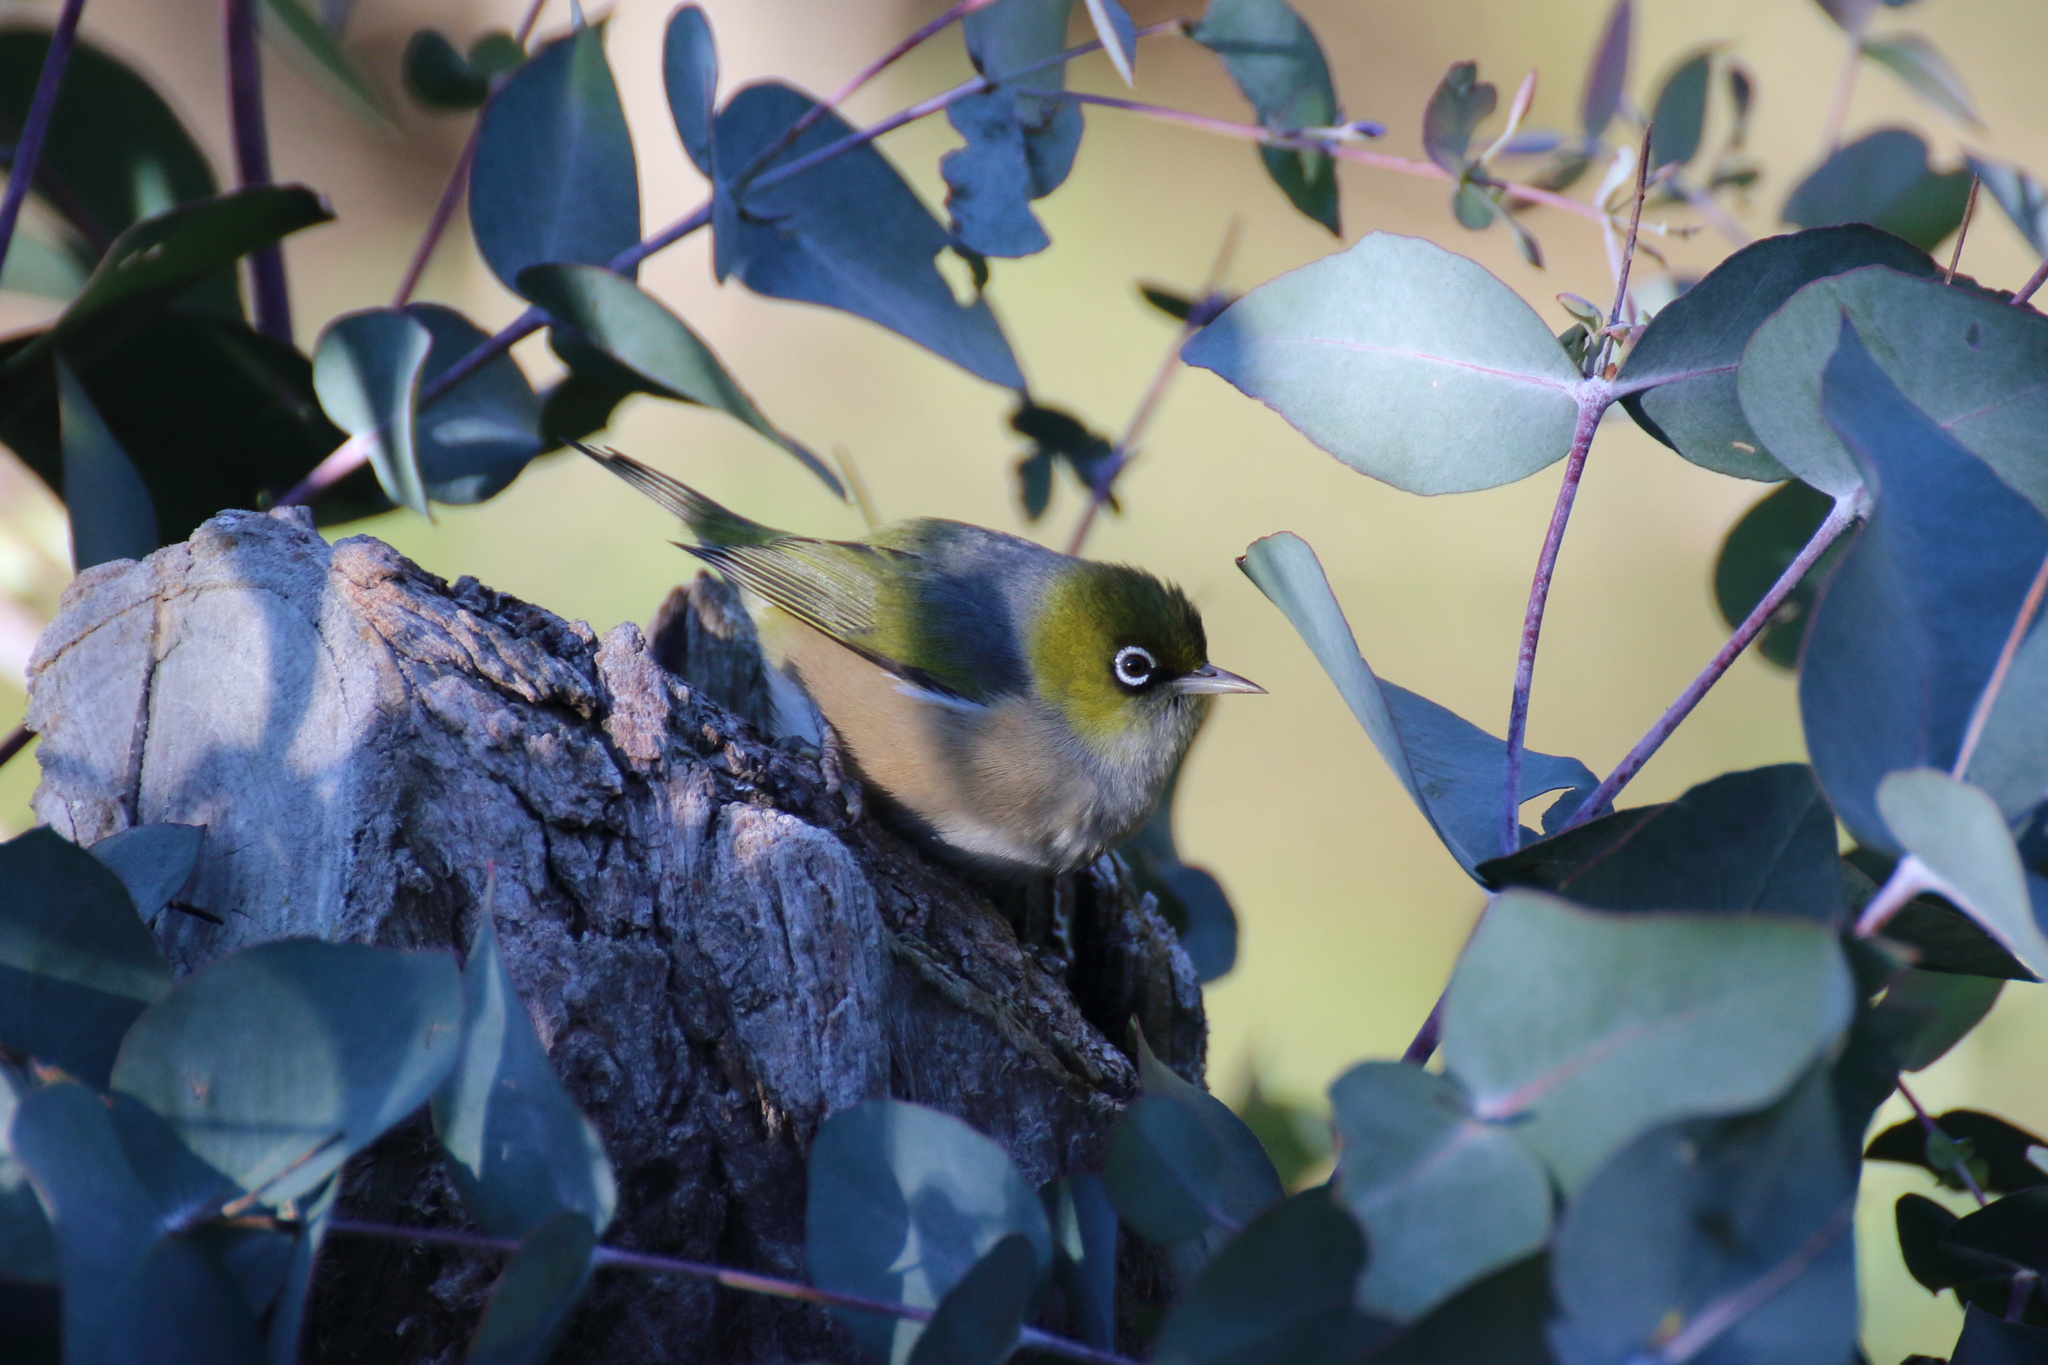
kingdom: Animalia
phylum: Chordata
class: Aves
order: Passeriformes
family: Zosteropidae
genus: Zosterops
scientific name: Zosterops lateralis
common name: Silvereye
